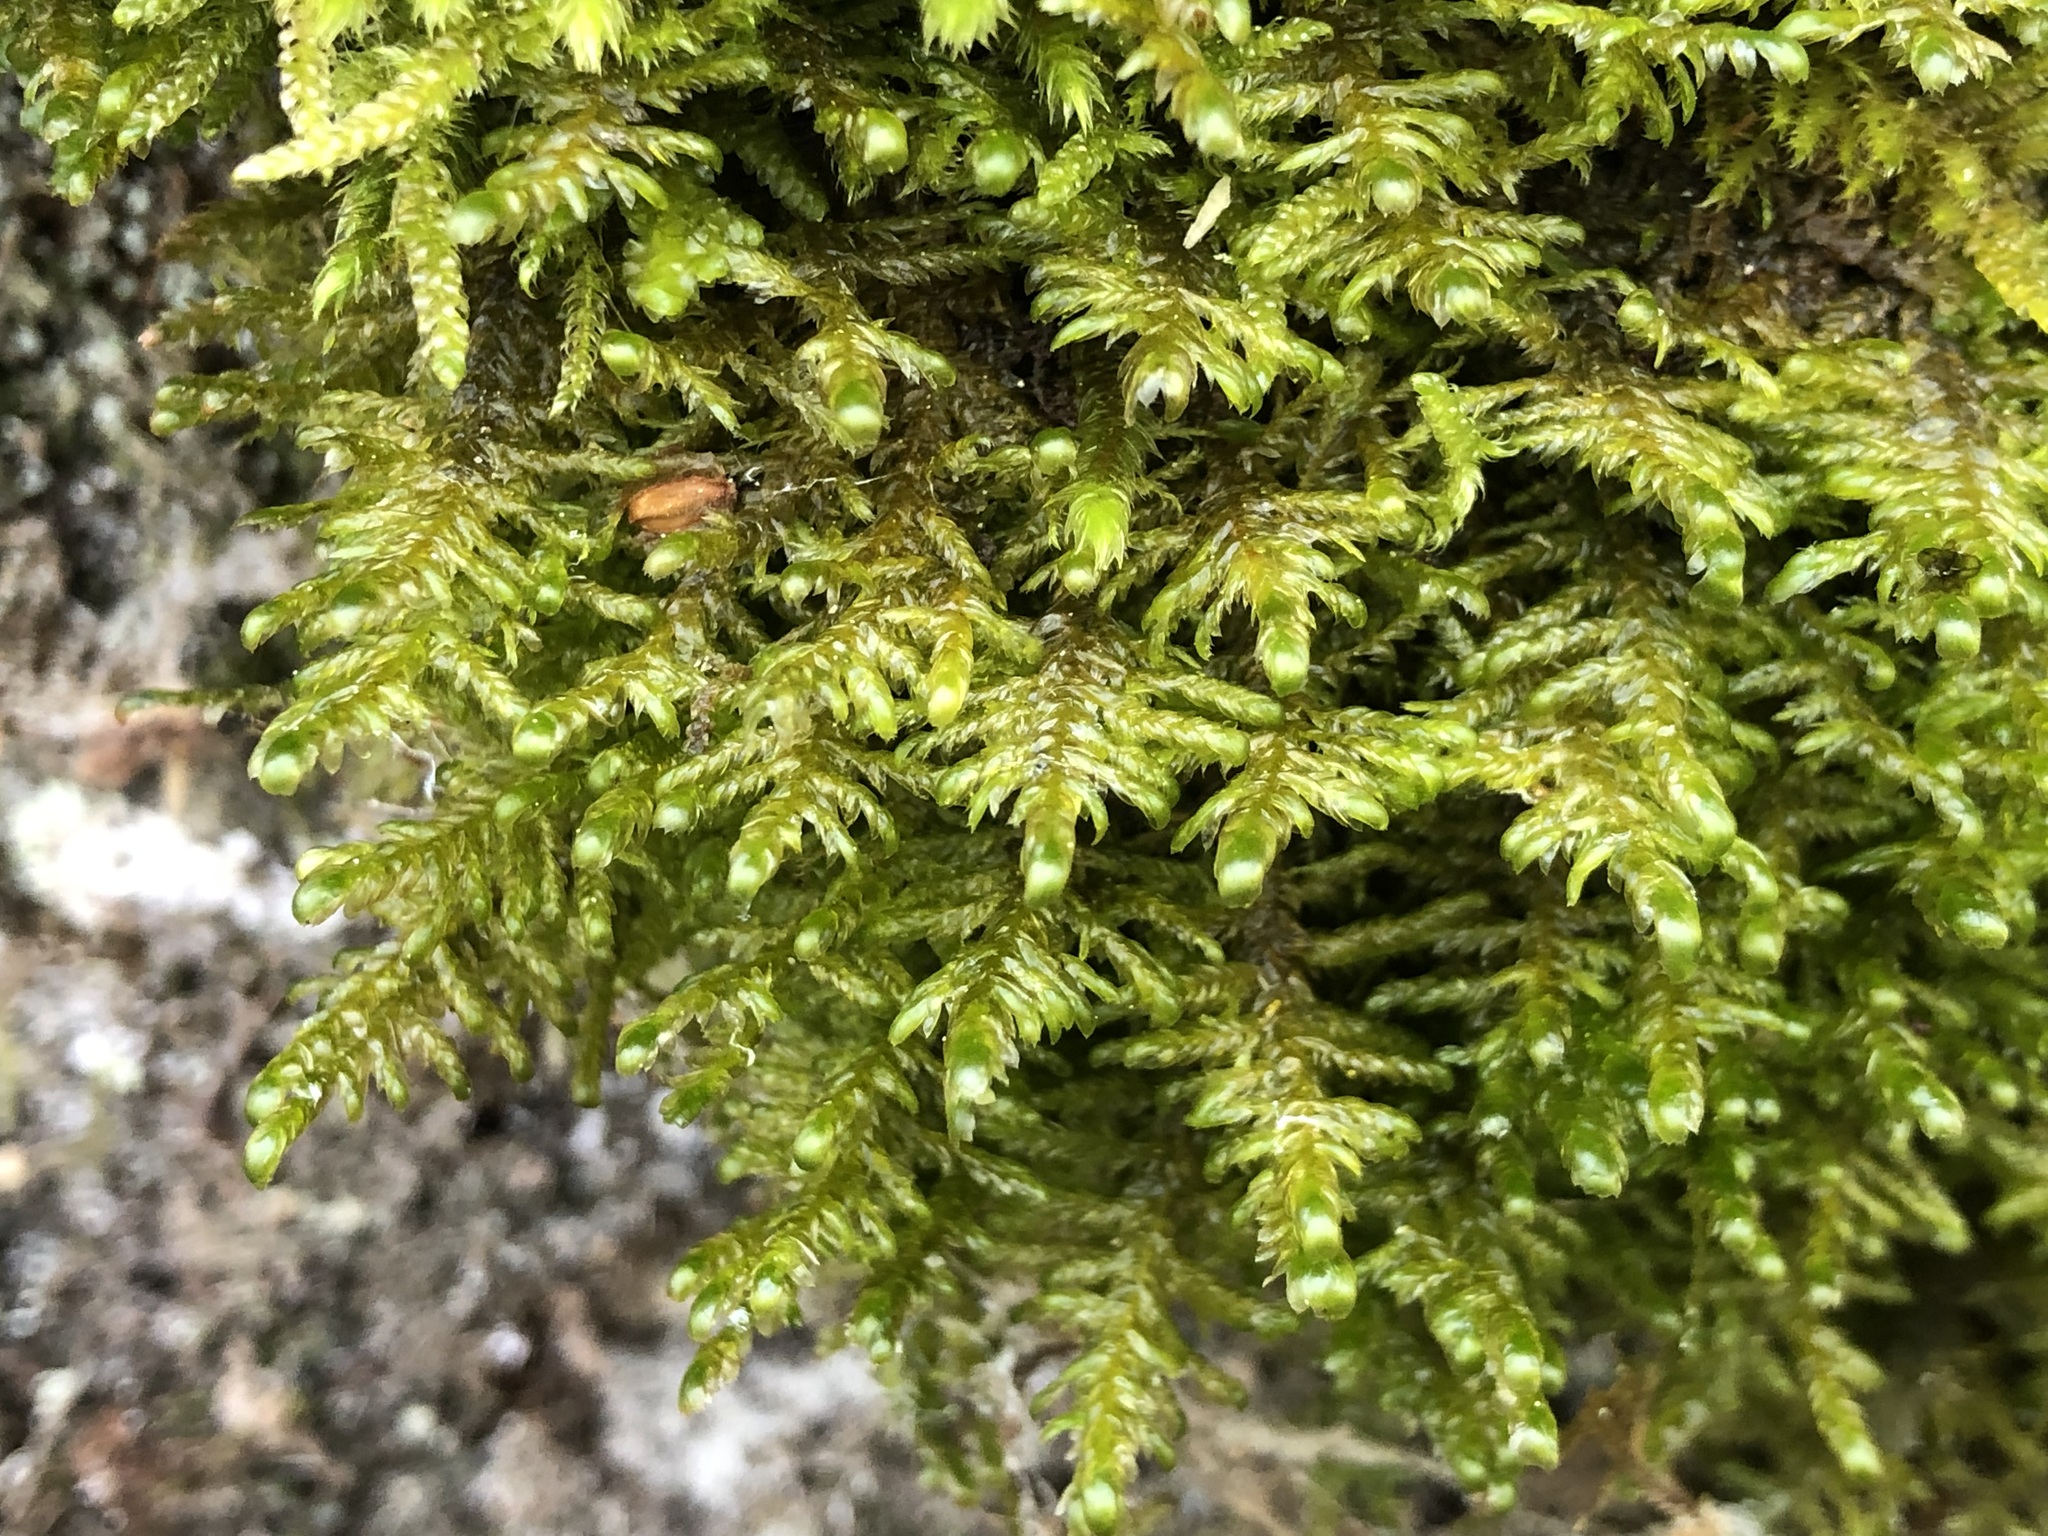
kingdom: Plantae
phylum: Bryophyta
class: Bryopsida
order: Hypnales
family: Neckeraceae
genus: Alleniella
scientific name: Alleniella complanata
